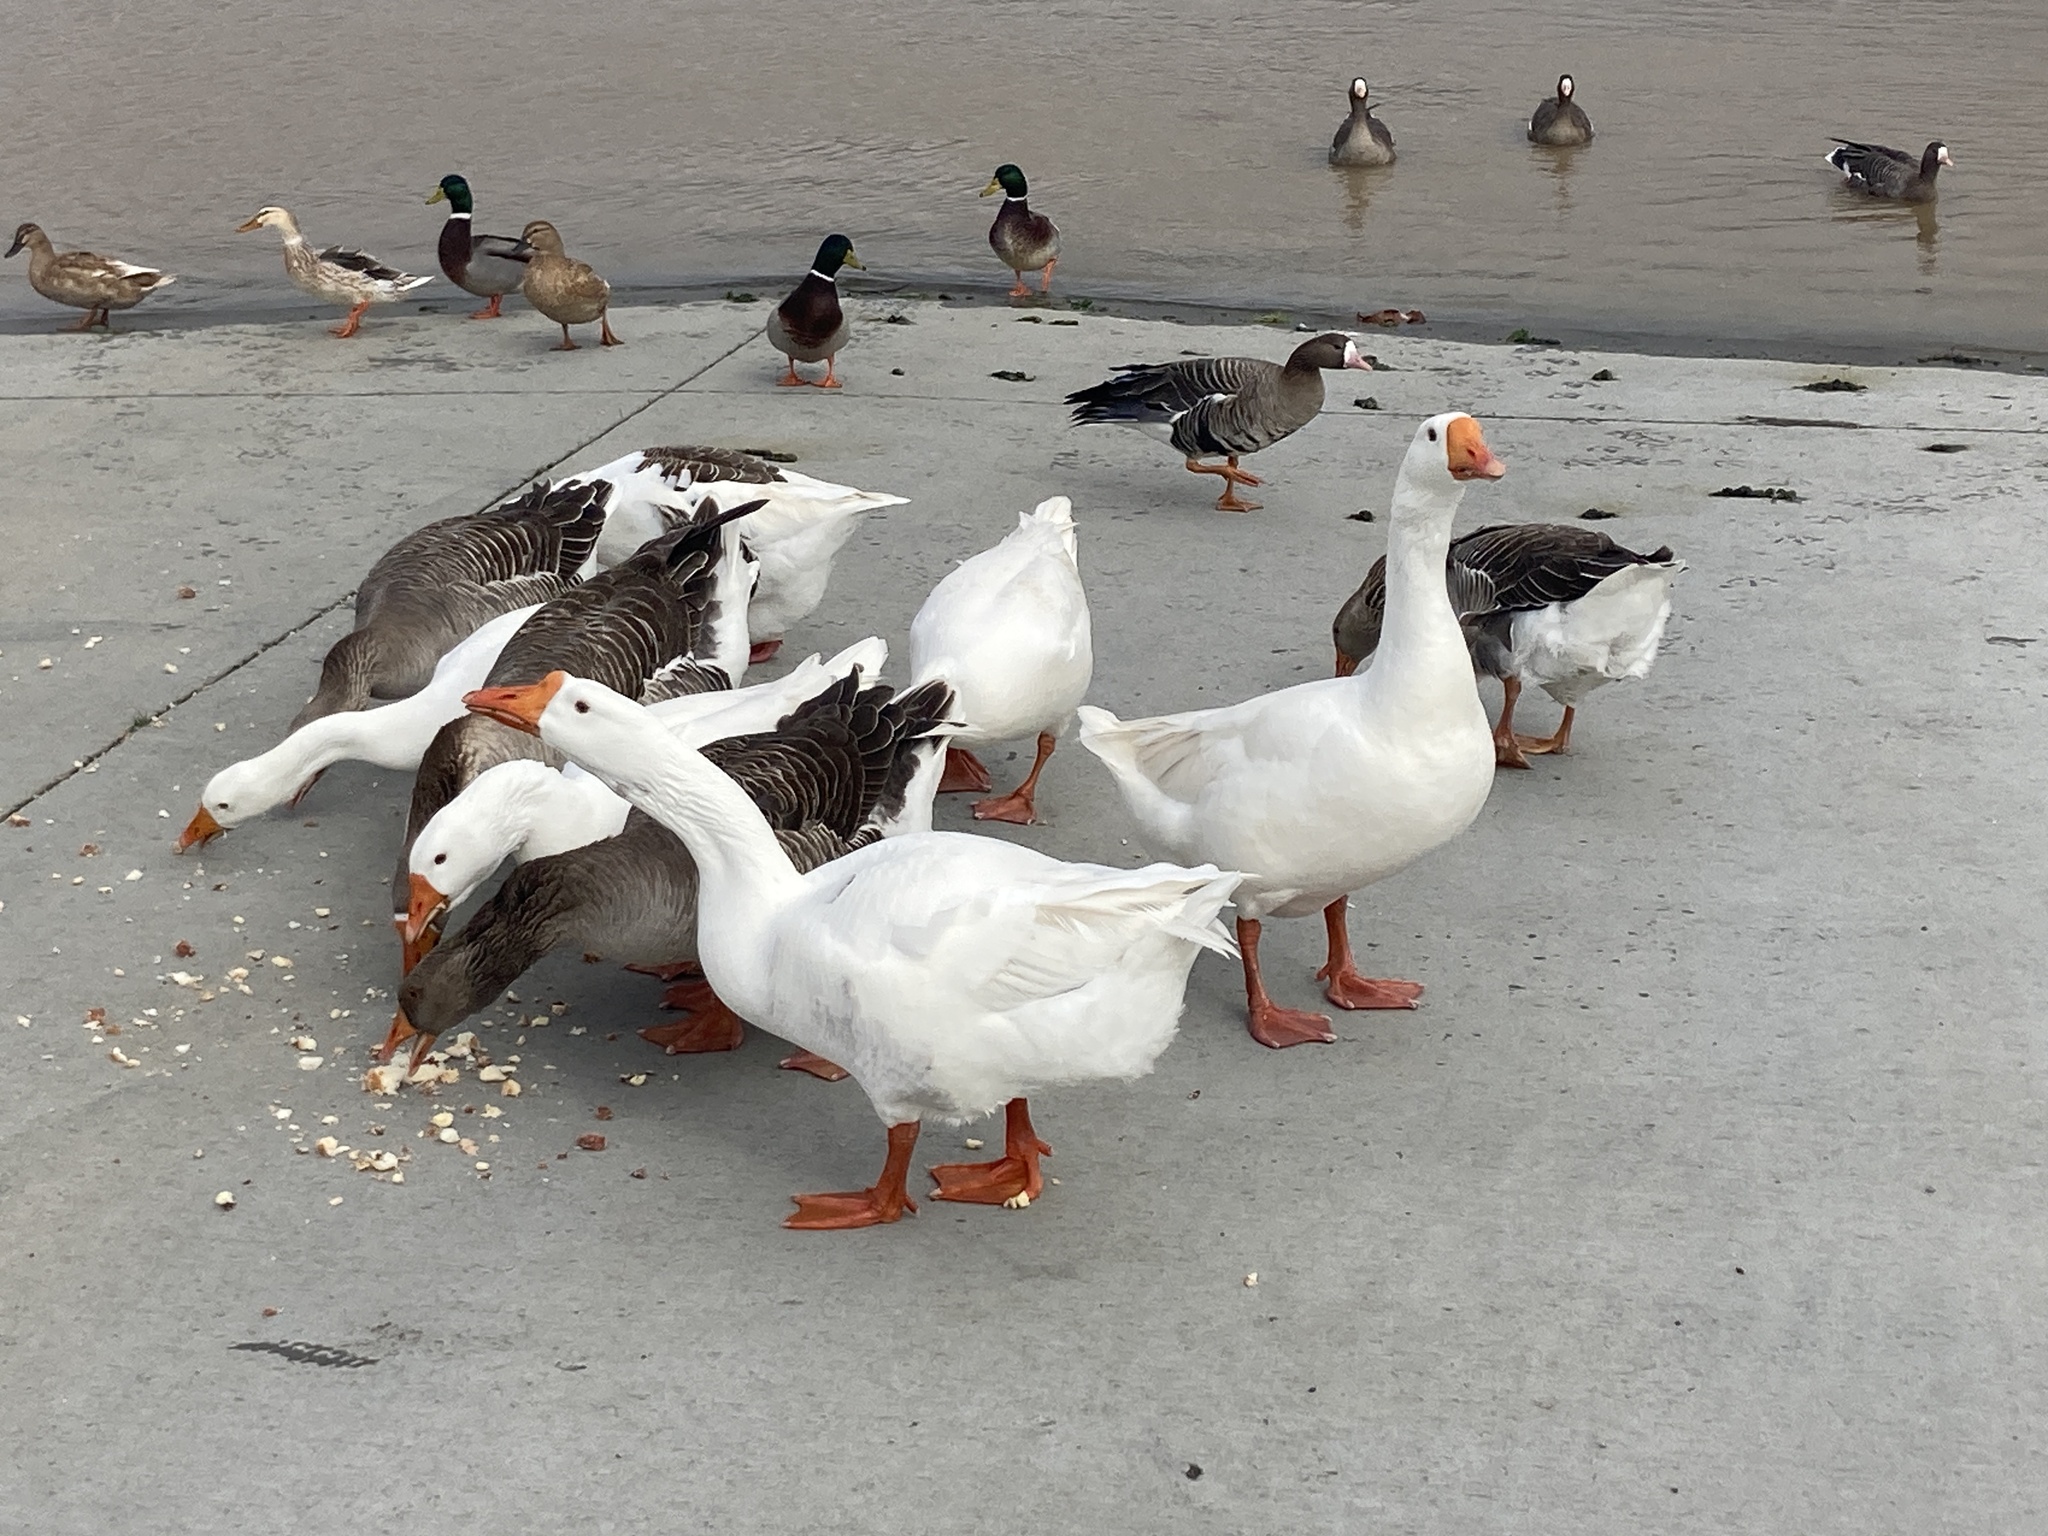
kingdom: Animalia
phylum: Chordata
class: Aves
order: Anseriformes
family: Anatidae
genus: Anser
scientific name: Anser
